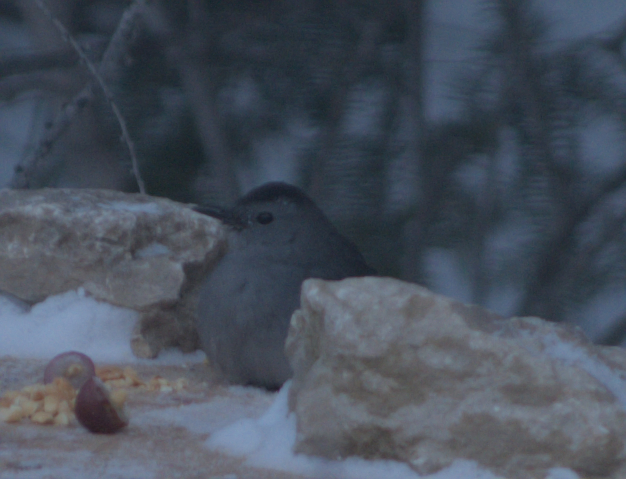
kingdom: Animalia
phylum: Chordata
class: Aves
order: Passeriformes
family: Mimidae
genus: Dumetella
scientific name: Dumetella carolinensis
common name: Gray catbird
